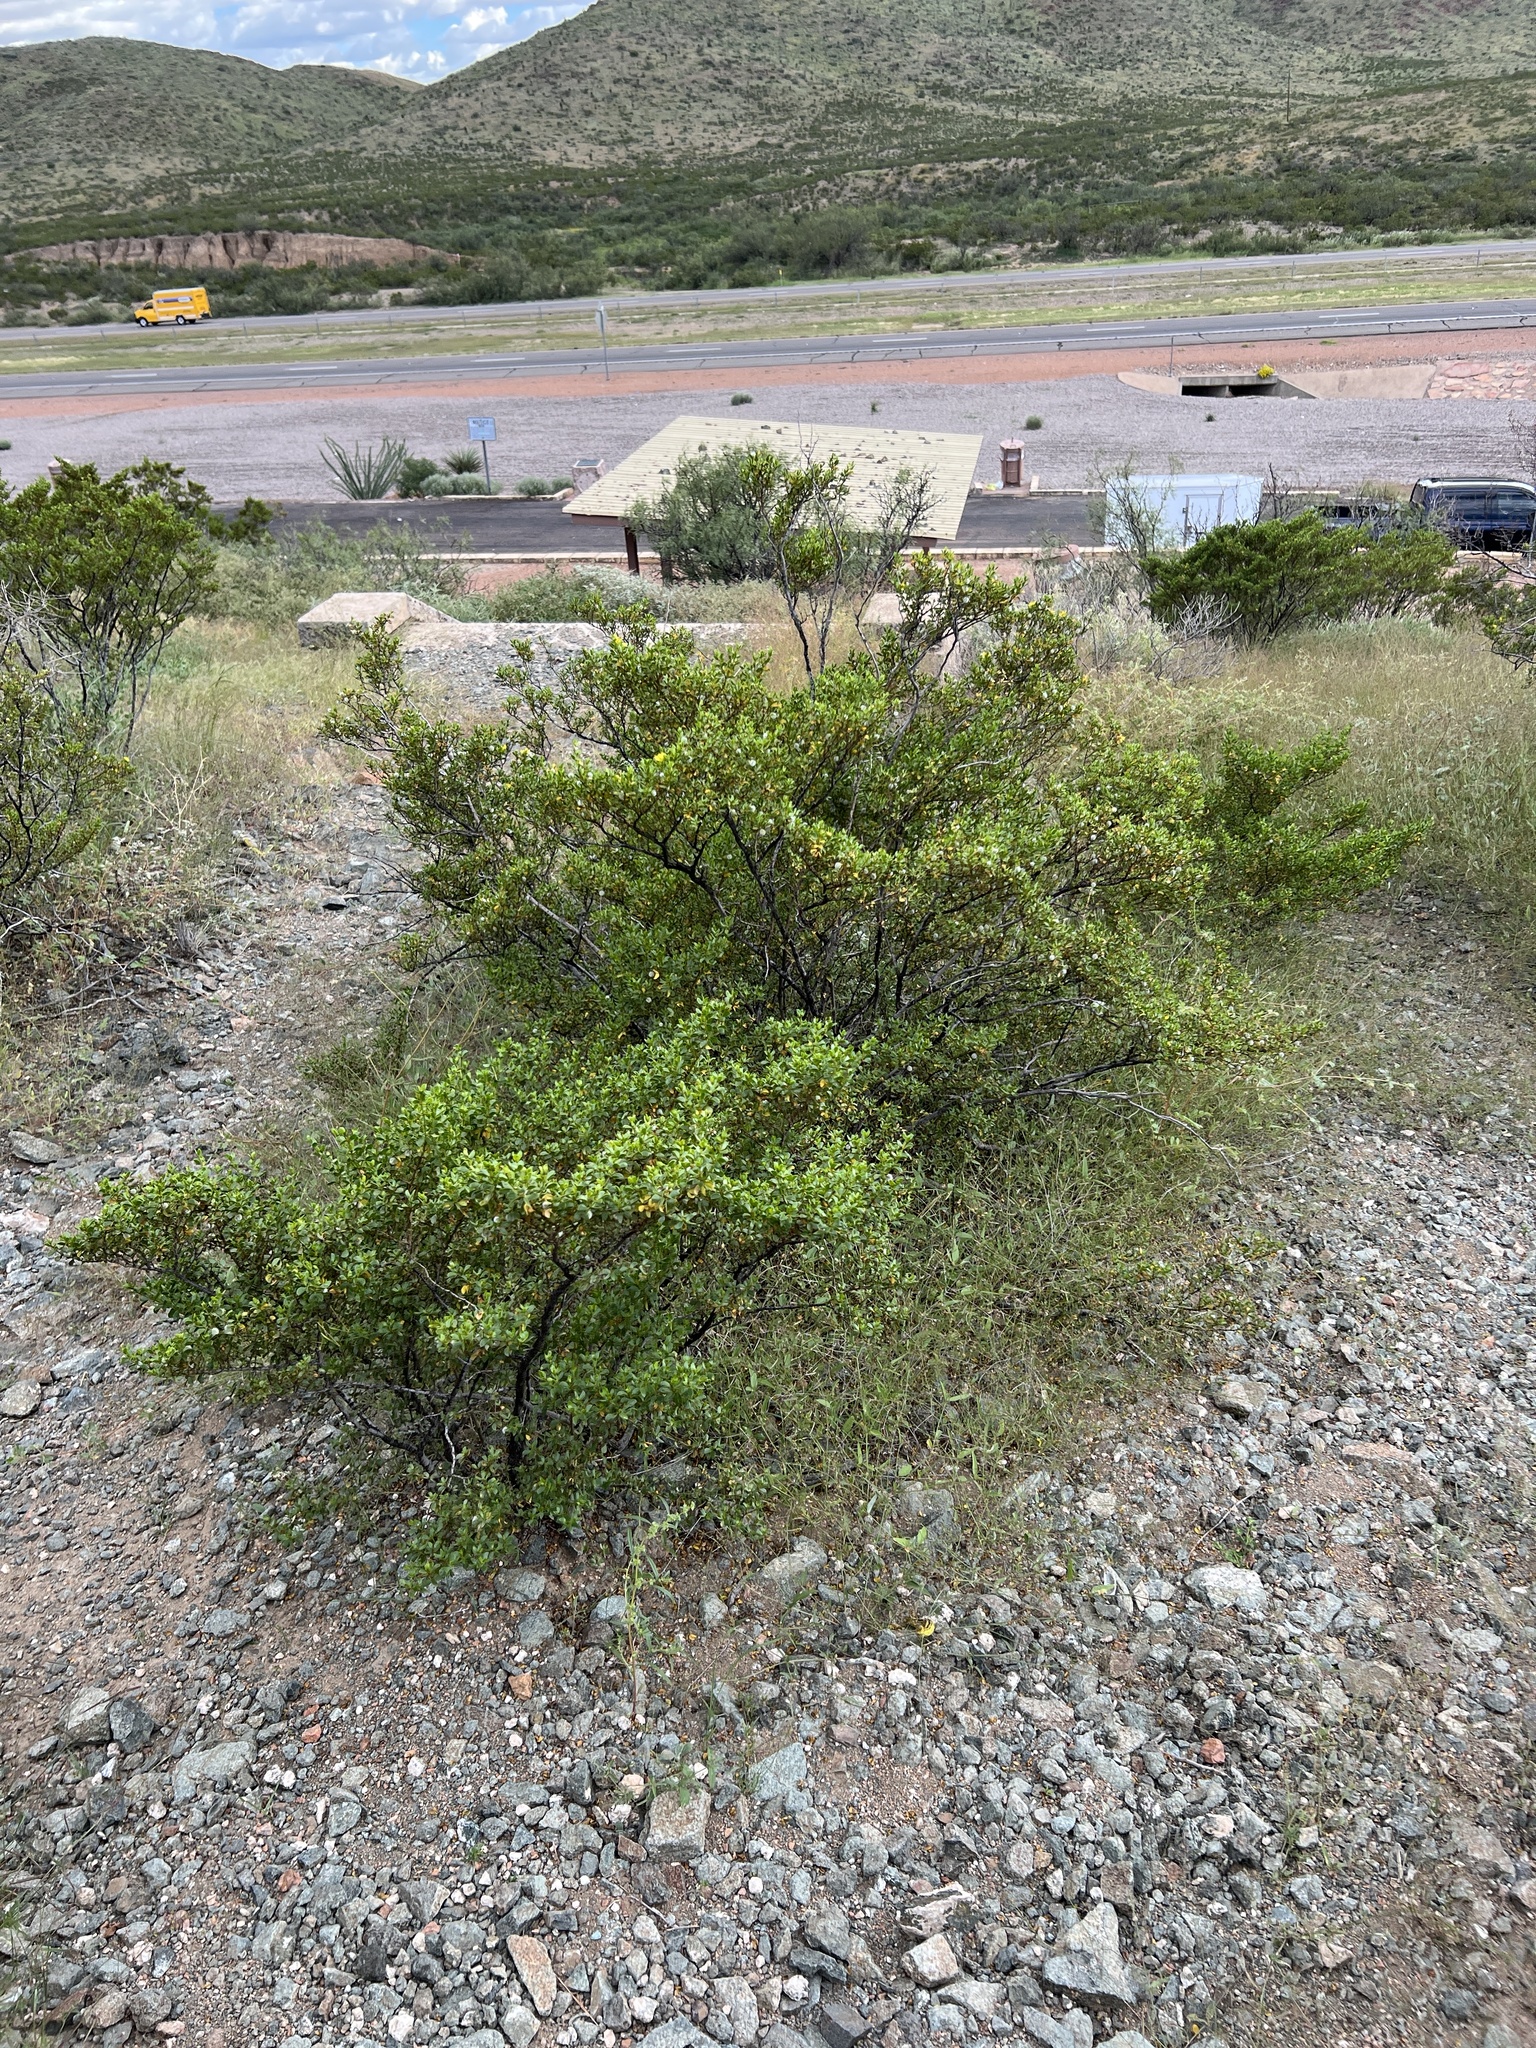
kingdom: Plantae
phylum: Tracheophyta
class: Magnoliopsida
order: Zygophyllales
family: Zygophyllaceae
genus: Larrea
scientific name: Larrea tridentata
